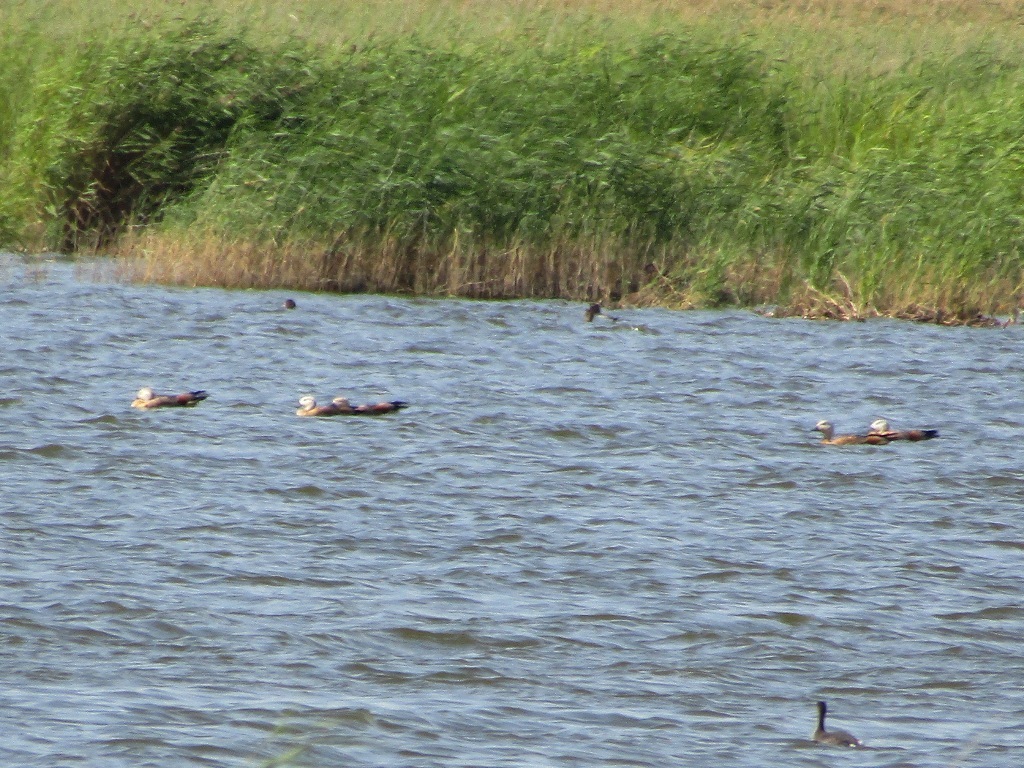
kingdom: Animalia
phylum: Chordata
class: Aves
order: Anseriformes
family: Anatidae
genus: Tadorna
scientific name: Tadorna ferruginea
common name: Ruddy shelduck
